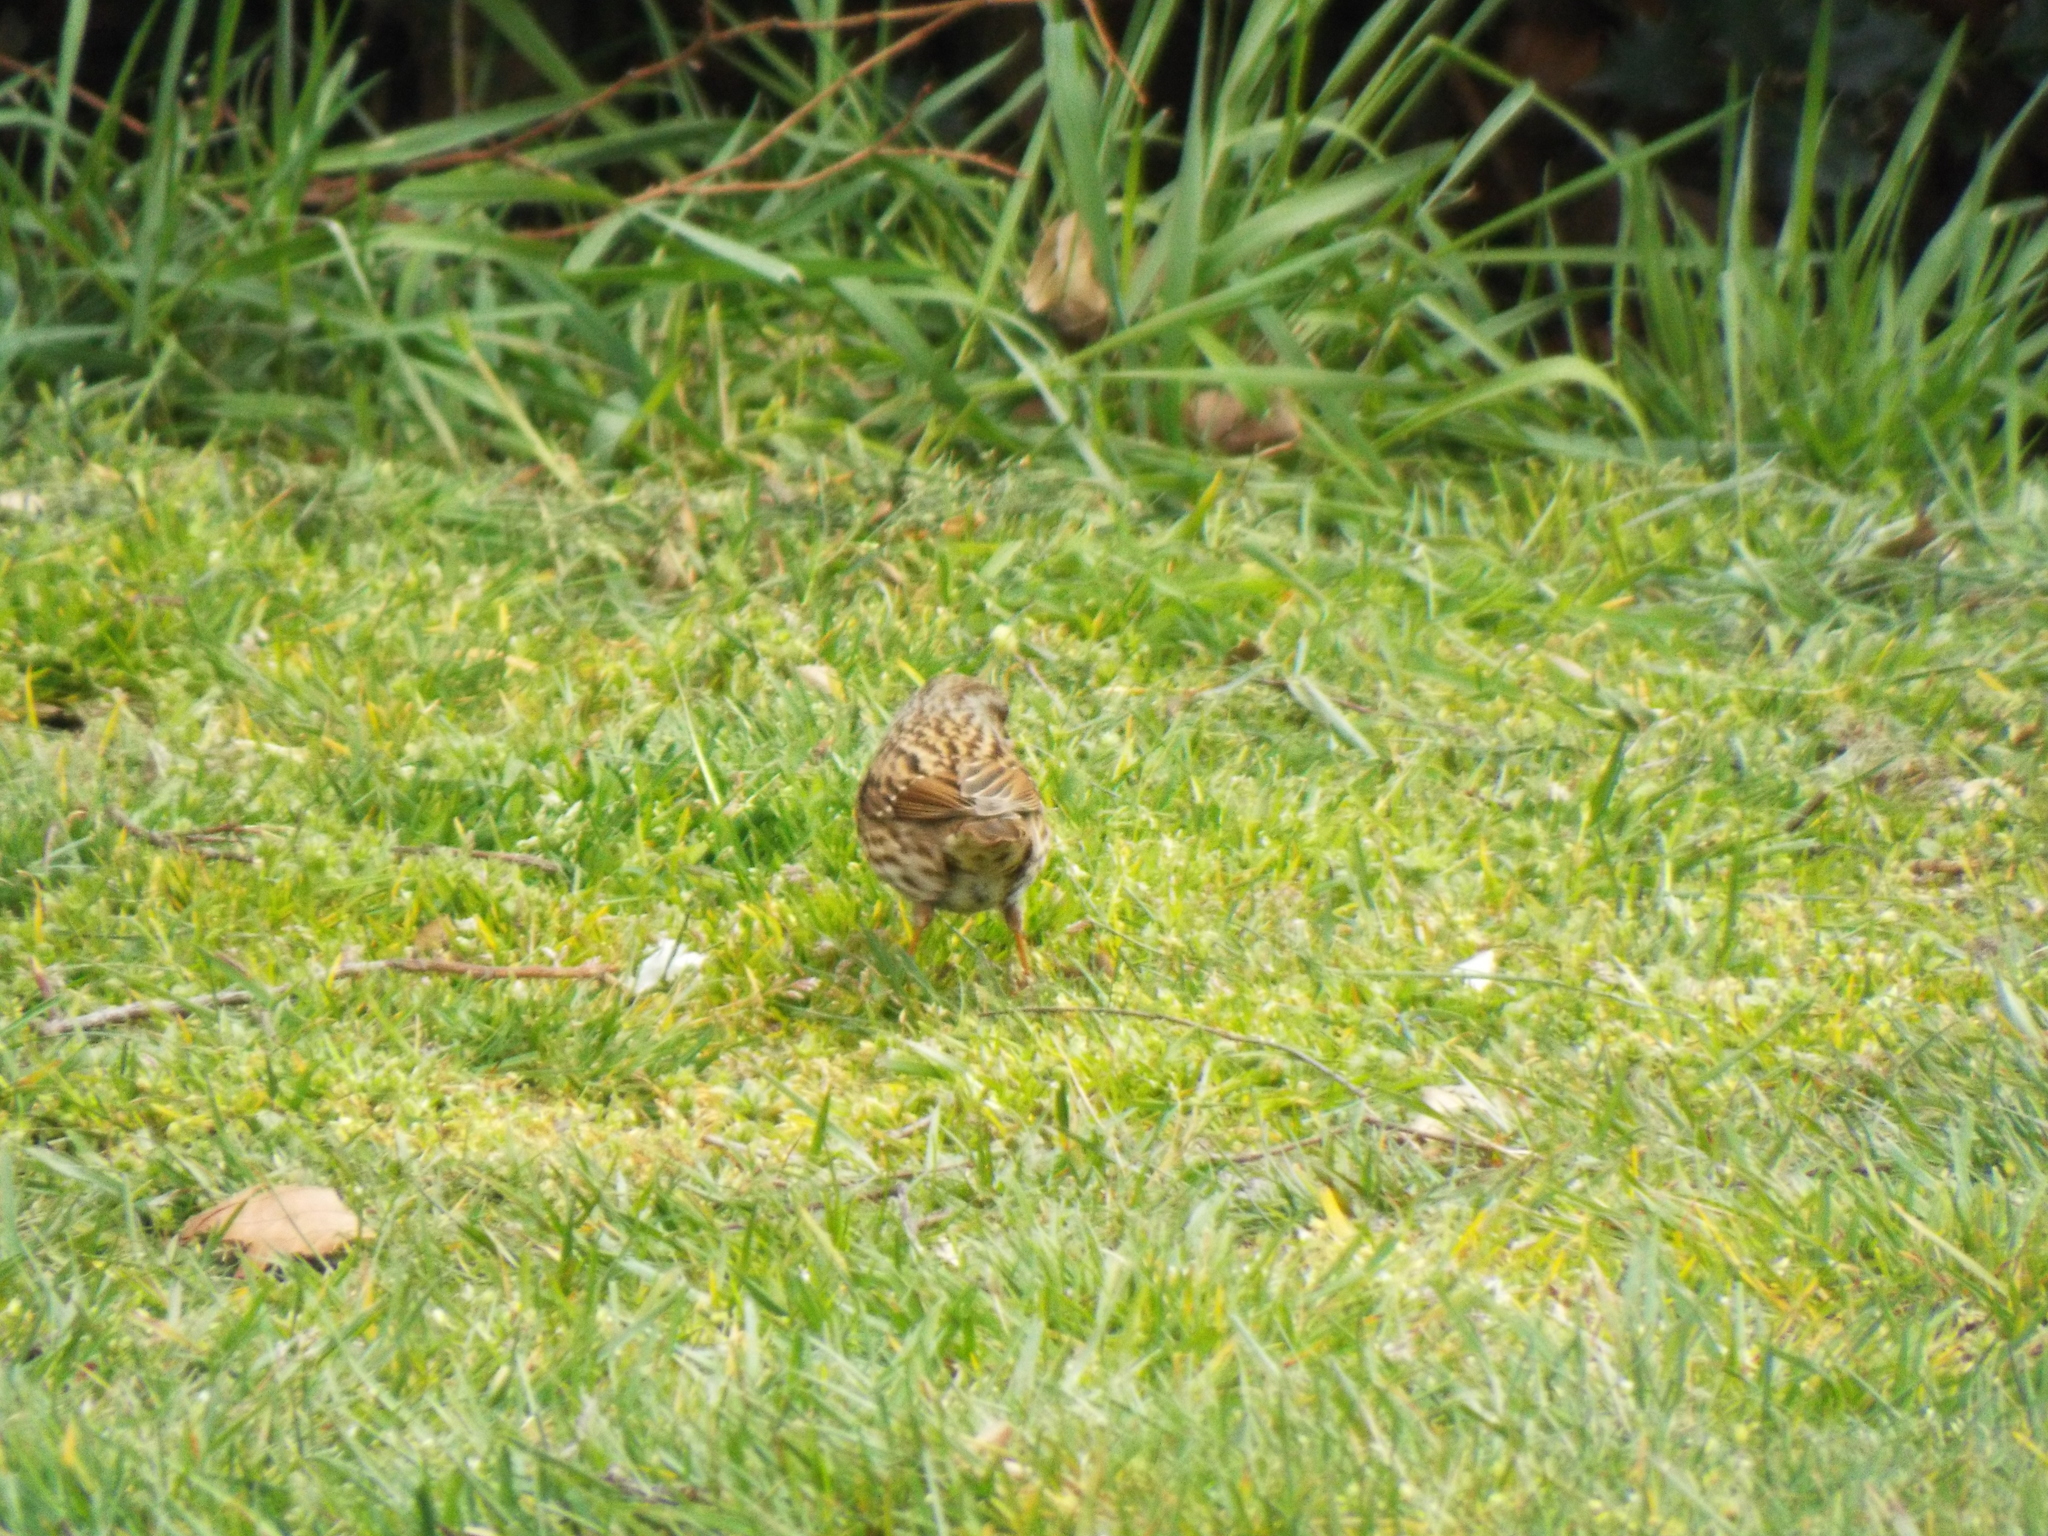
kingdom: Animalia
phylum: Chordata
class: Aves
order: Passeriformes
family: Prunellidae
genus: Prunella
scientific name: Prunella modularis
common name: Dunnock
